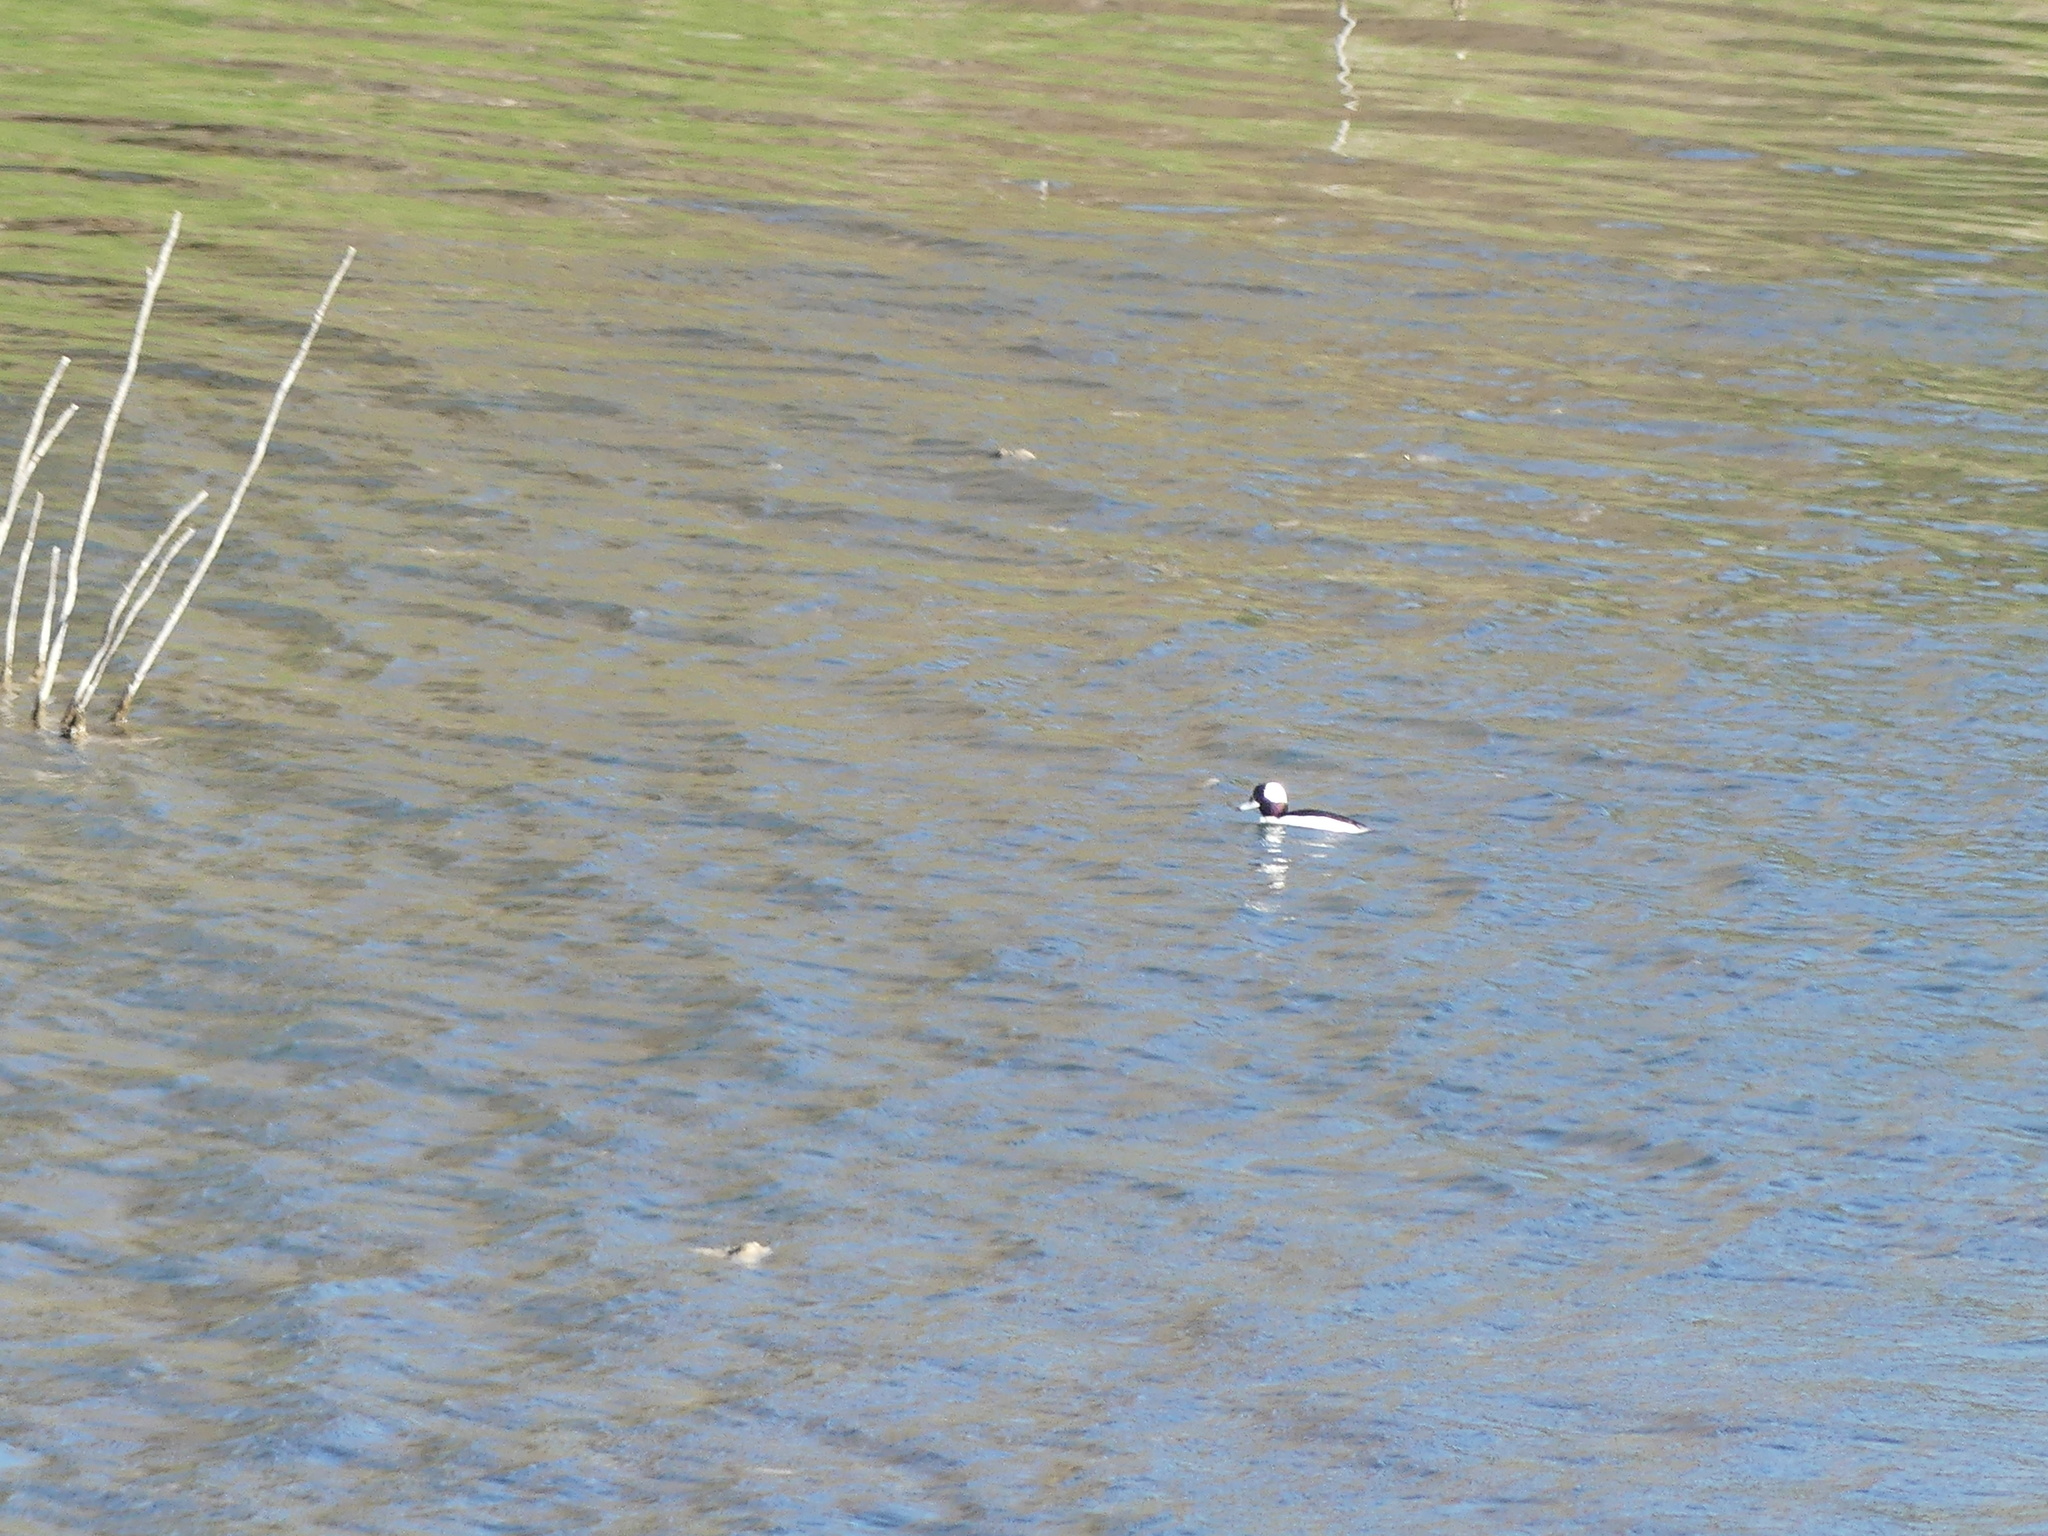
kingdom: Animalia
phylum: Chordata
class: Aves
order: Anseriformes
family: Anatidae
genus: Bucephala
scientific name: Bucephala albeola
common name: Bufflehead
